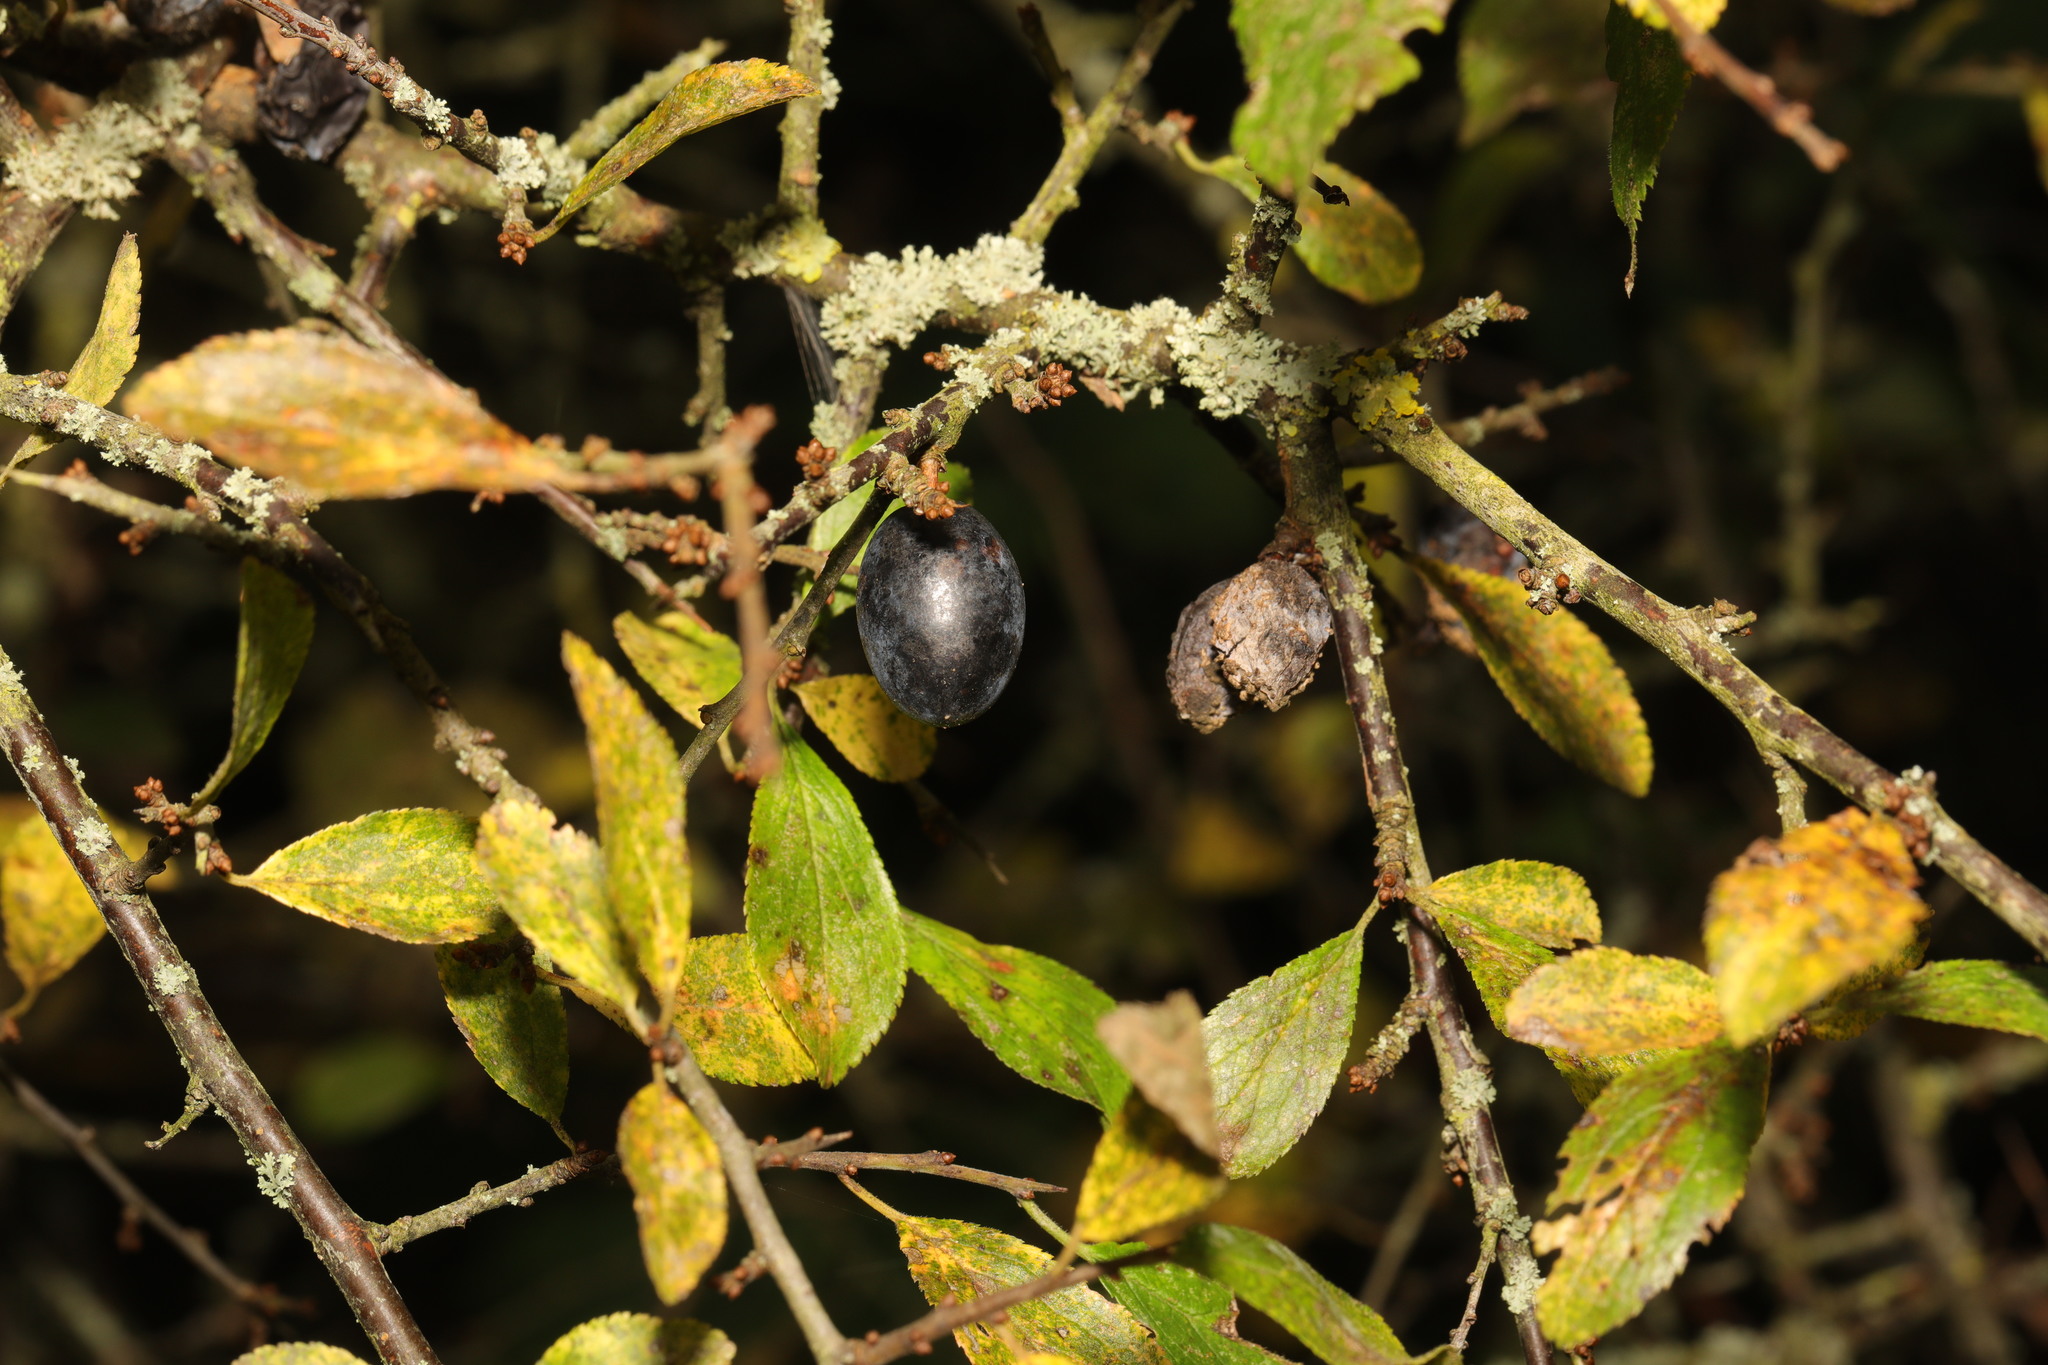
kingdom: Plantae
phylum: Tracheophyta
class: Magnoliopsida
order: Rosales
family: Rosaceae
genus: Prunus
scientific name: Prunus spinosa
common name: Blackthorn
